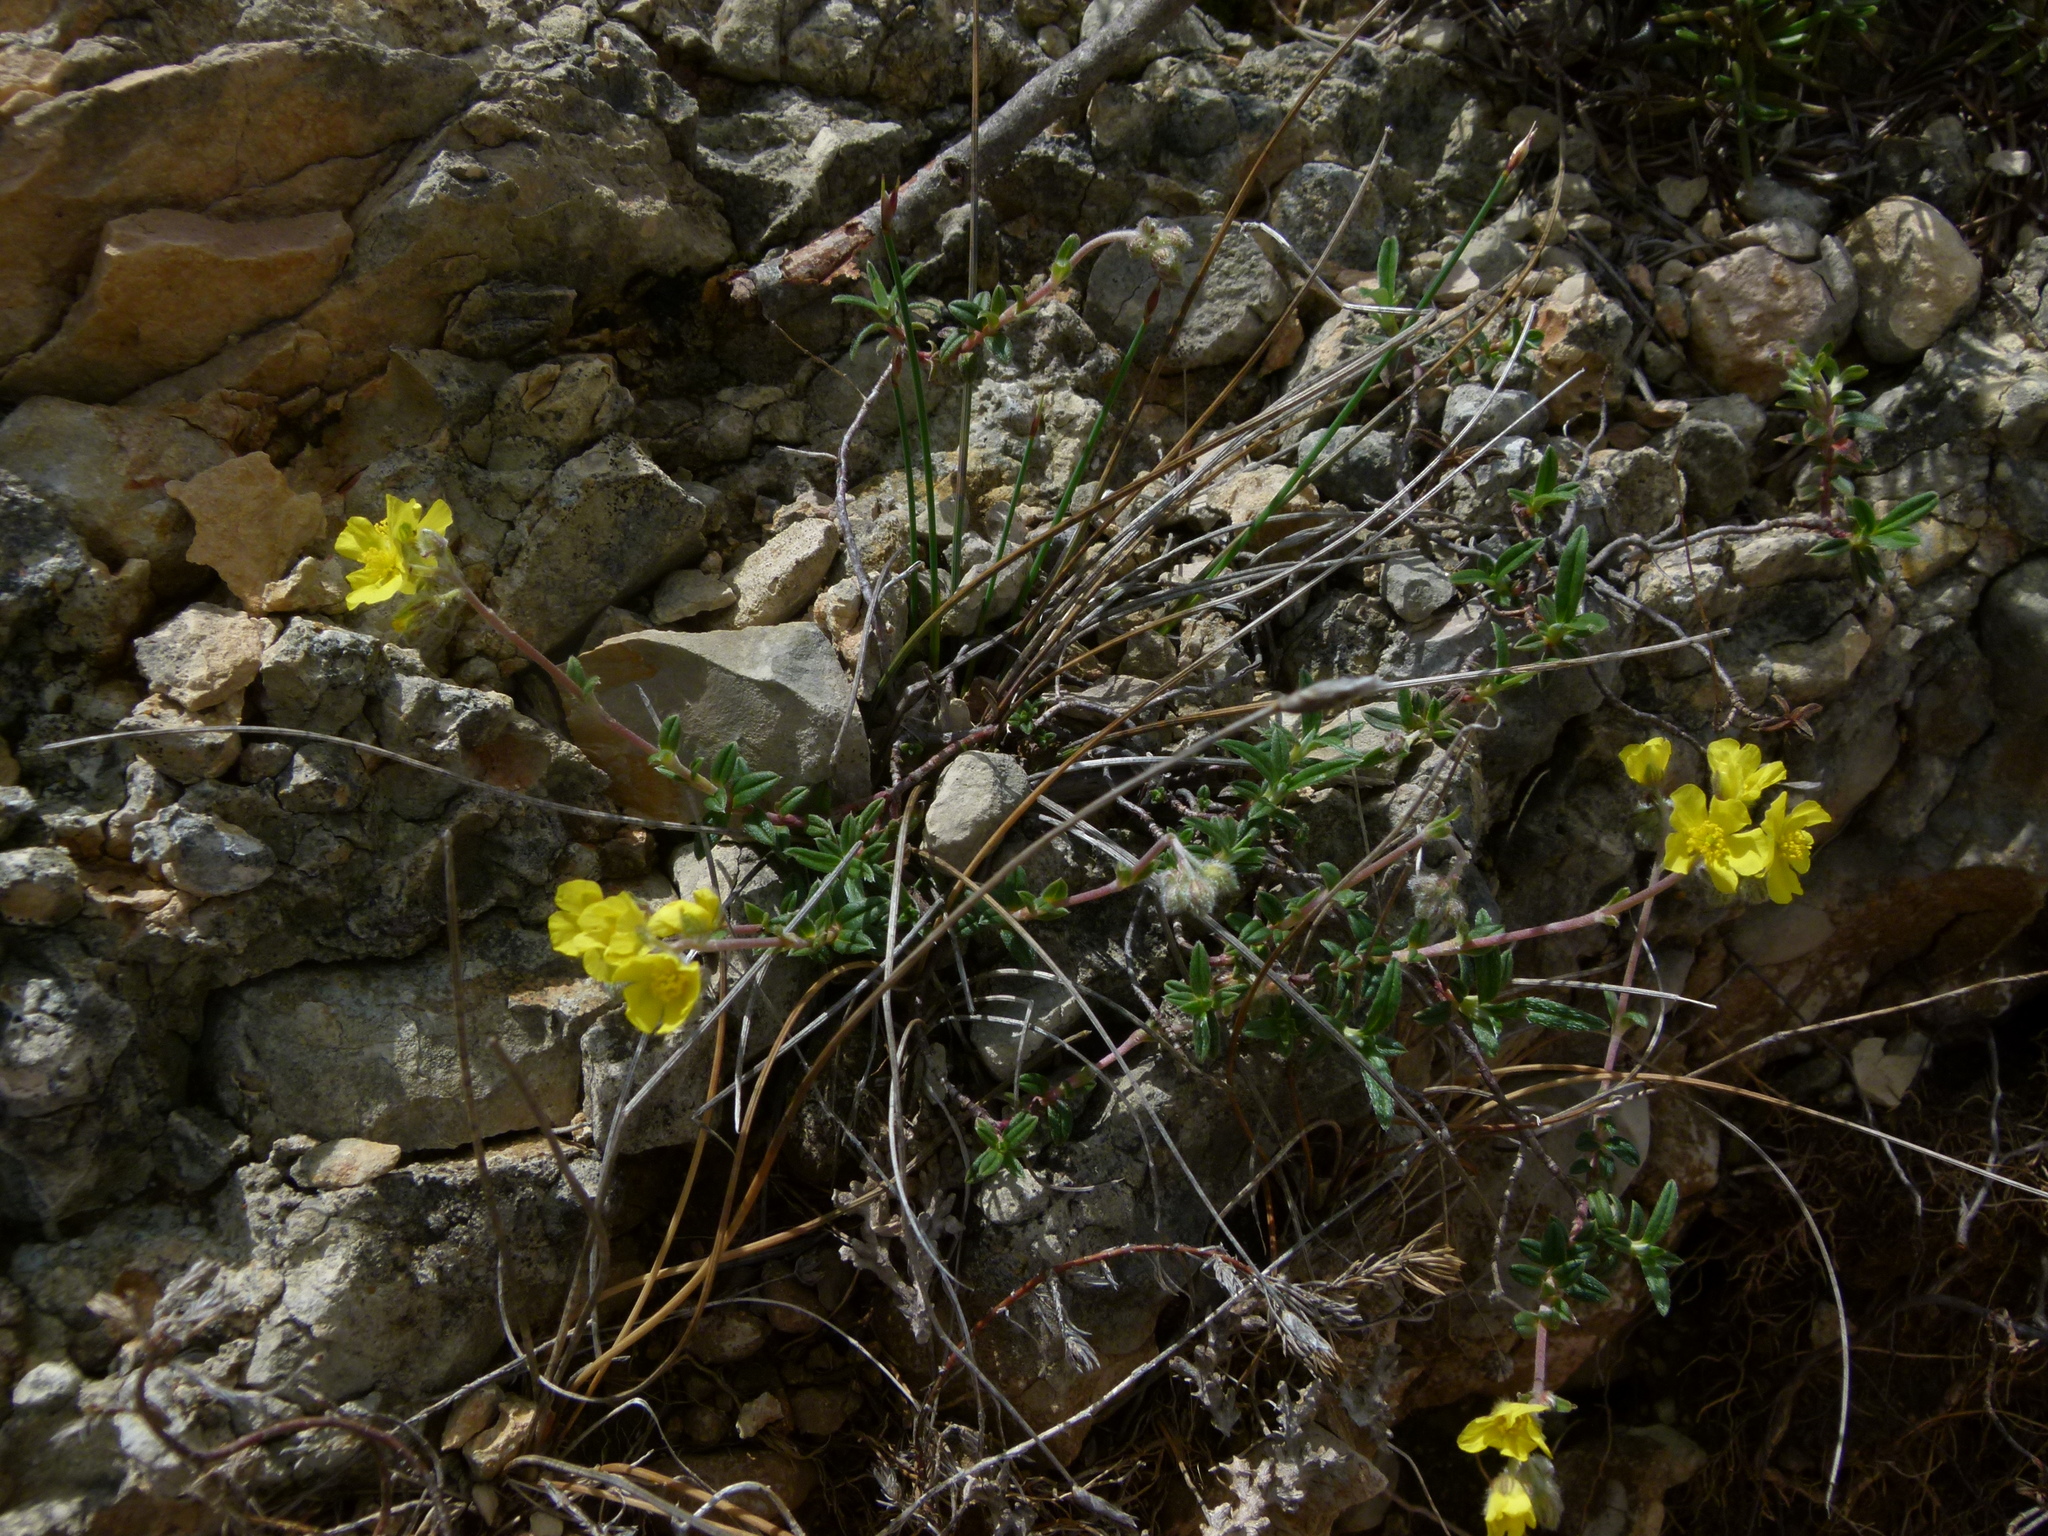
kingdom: Plantae
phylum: Tracheophyta
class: Magnoliopsida
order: Malvales
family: Cistaceae
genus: Helianthemum
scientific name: Helianthemum oelandicum
